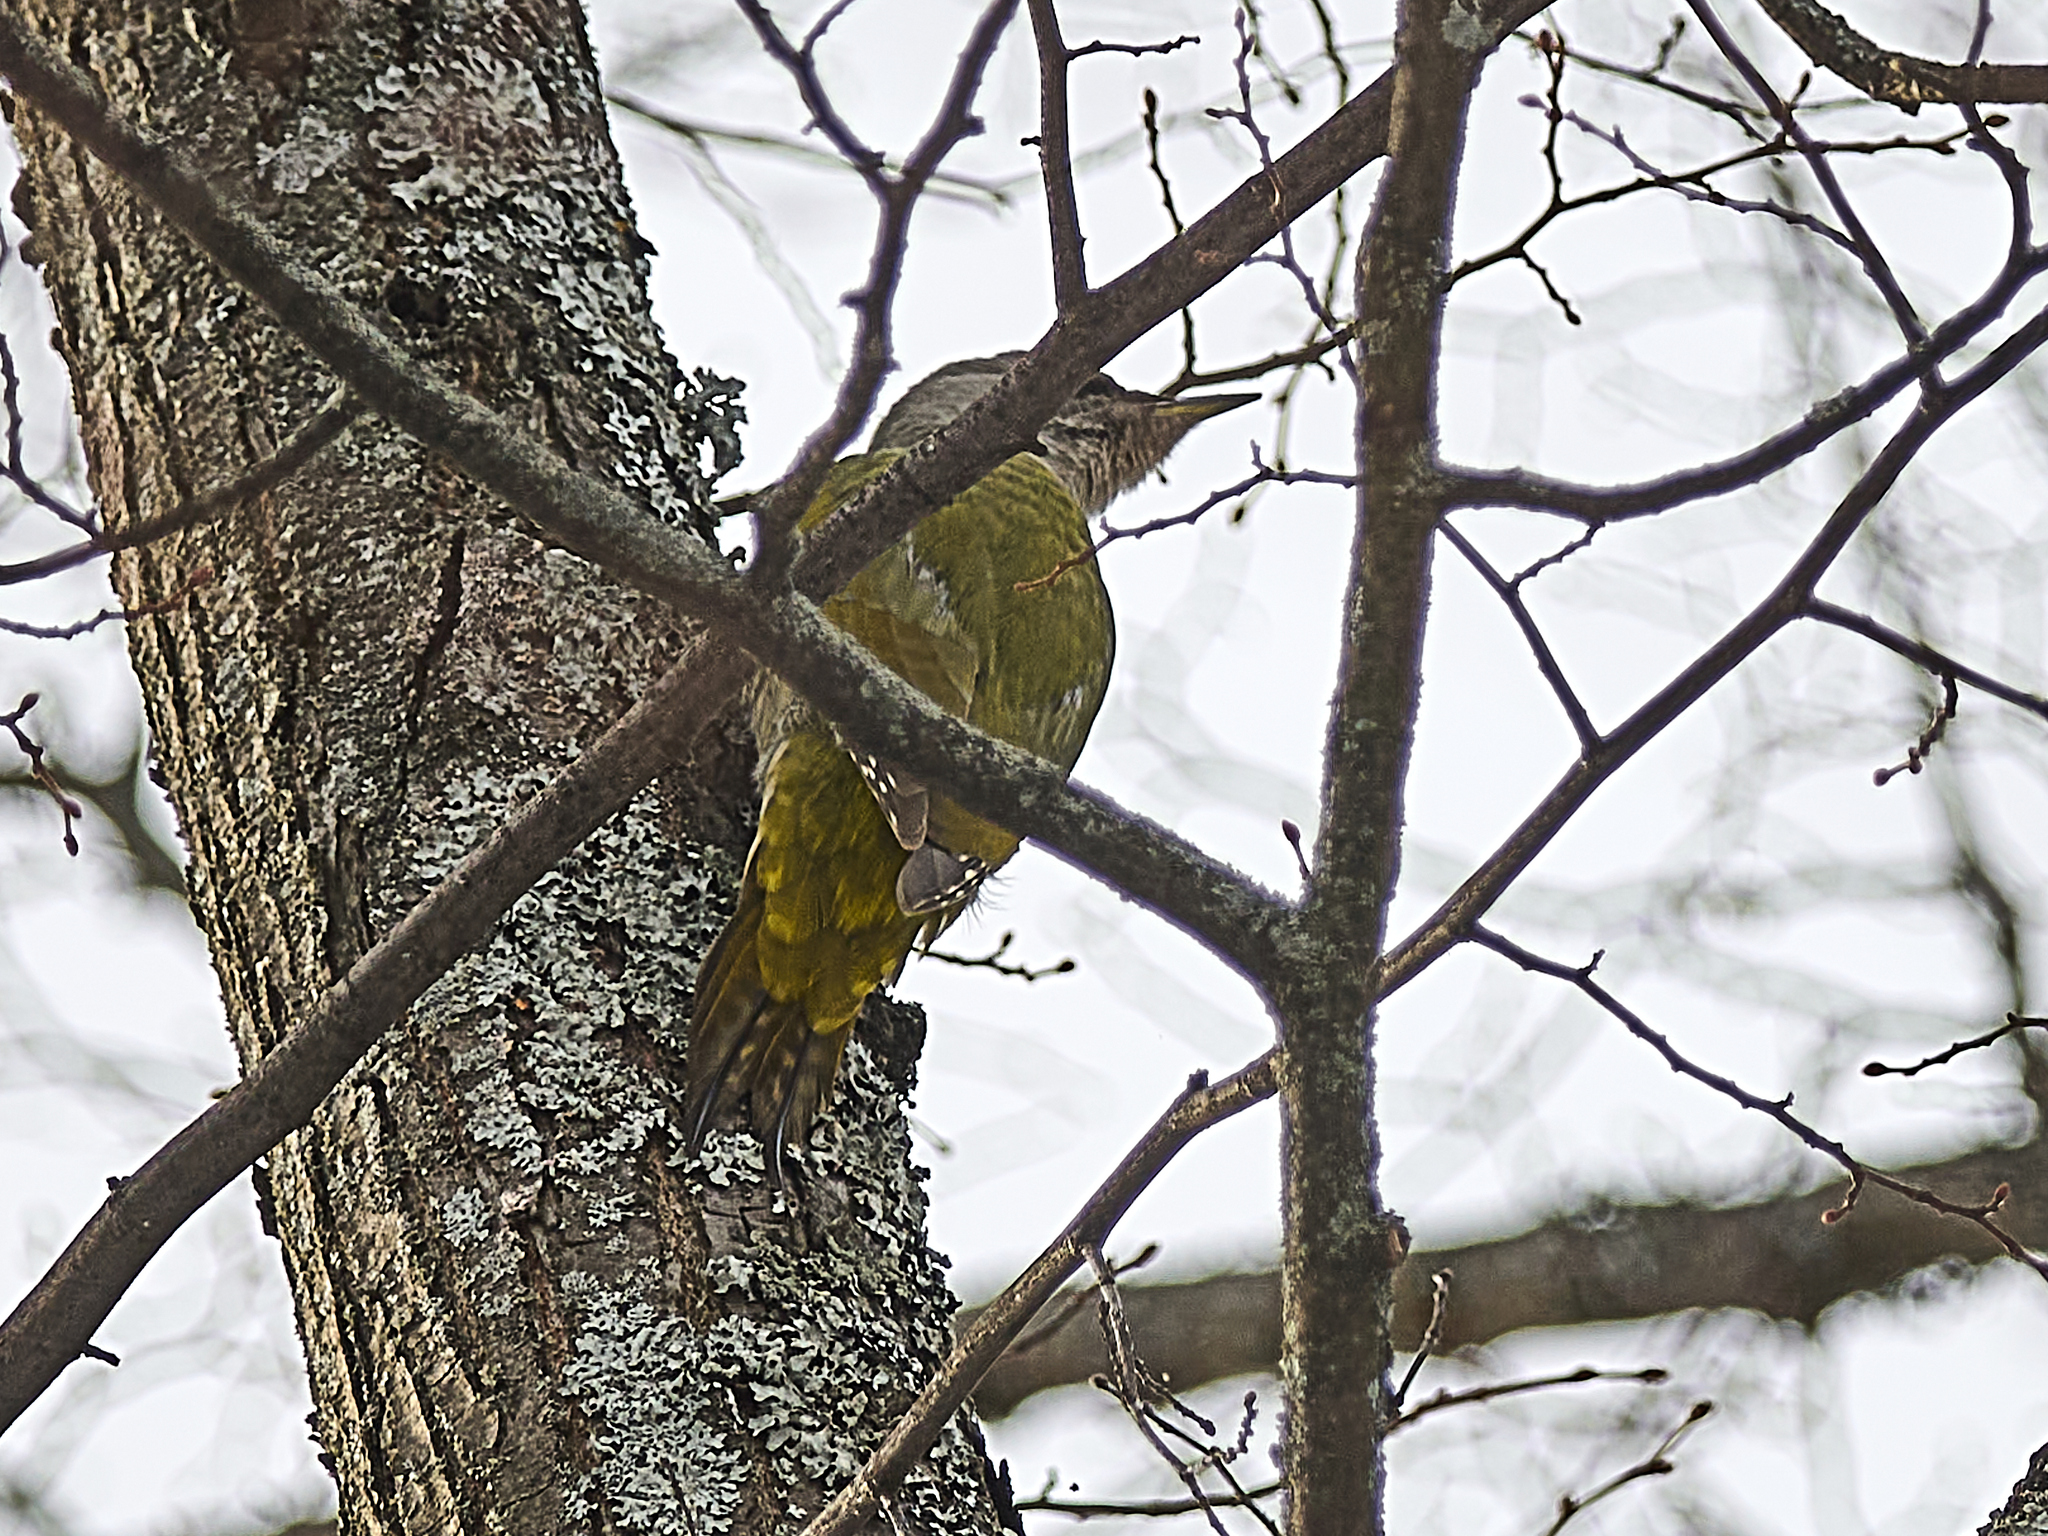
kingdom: Animalia
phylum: Chordata
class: Aves
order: Piciformes
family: Picidae
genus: Picus
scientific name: Picus canus
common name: Grey-headed woodpecker
